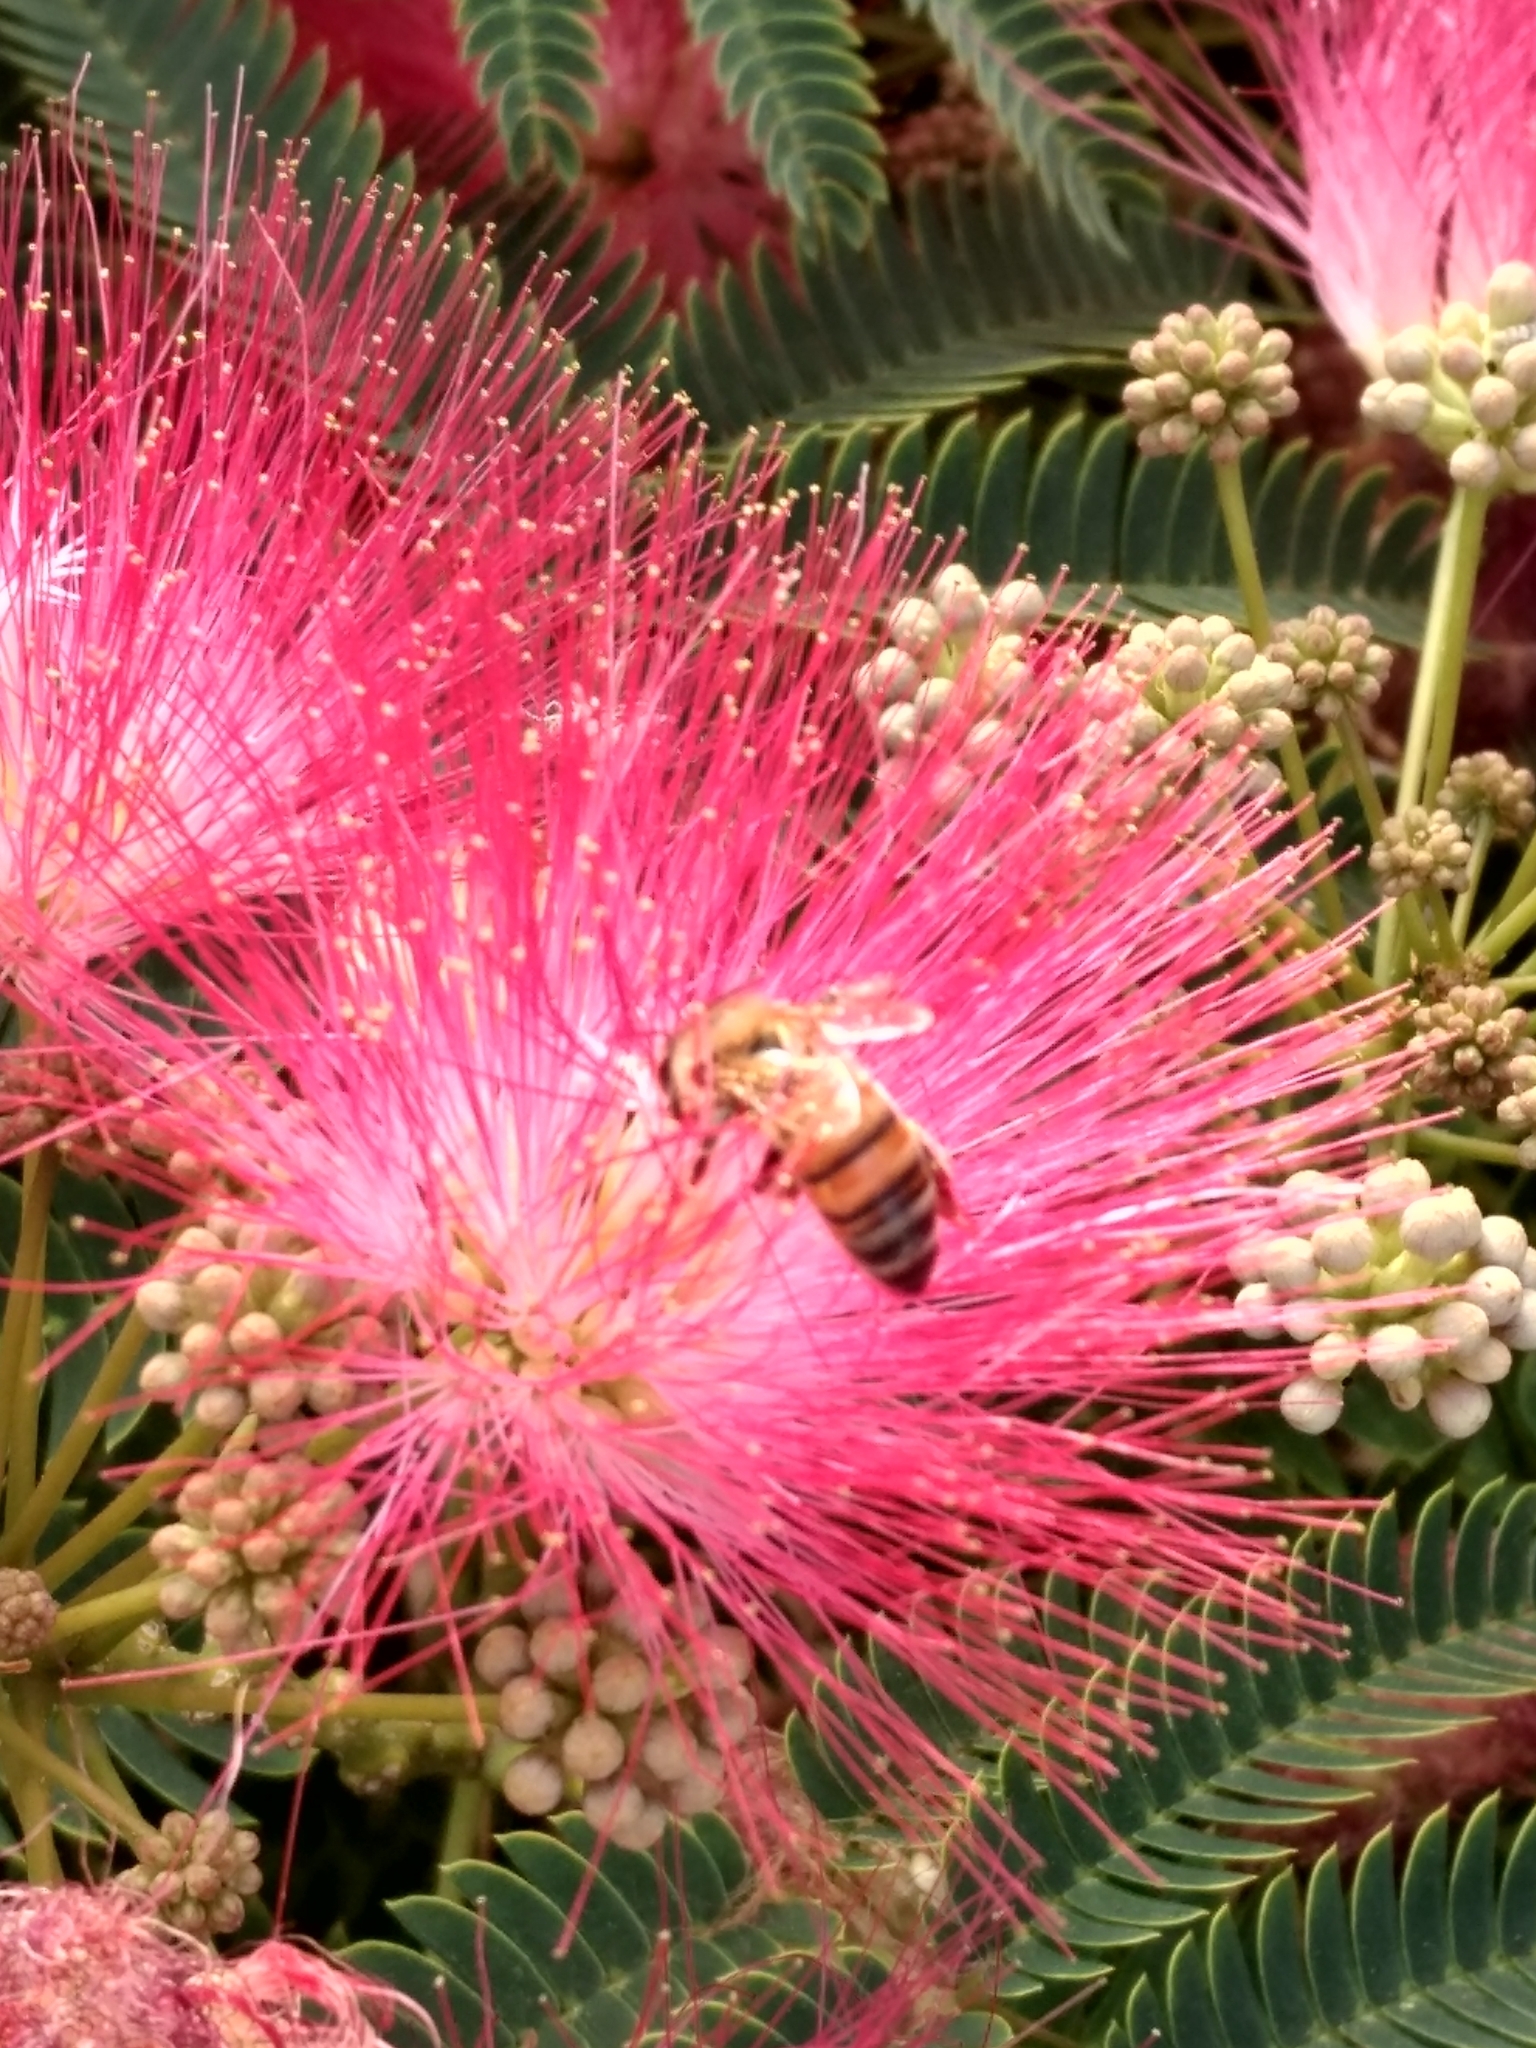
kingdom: Animalia
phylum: Arthropoda
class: Insecta
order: Hymenoptera
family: Apidae
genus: Apis
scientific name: Apis mellifera
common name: Honey bee
